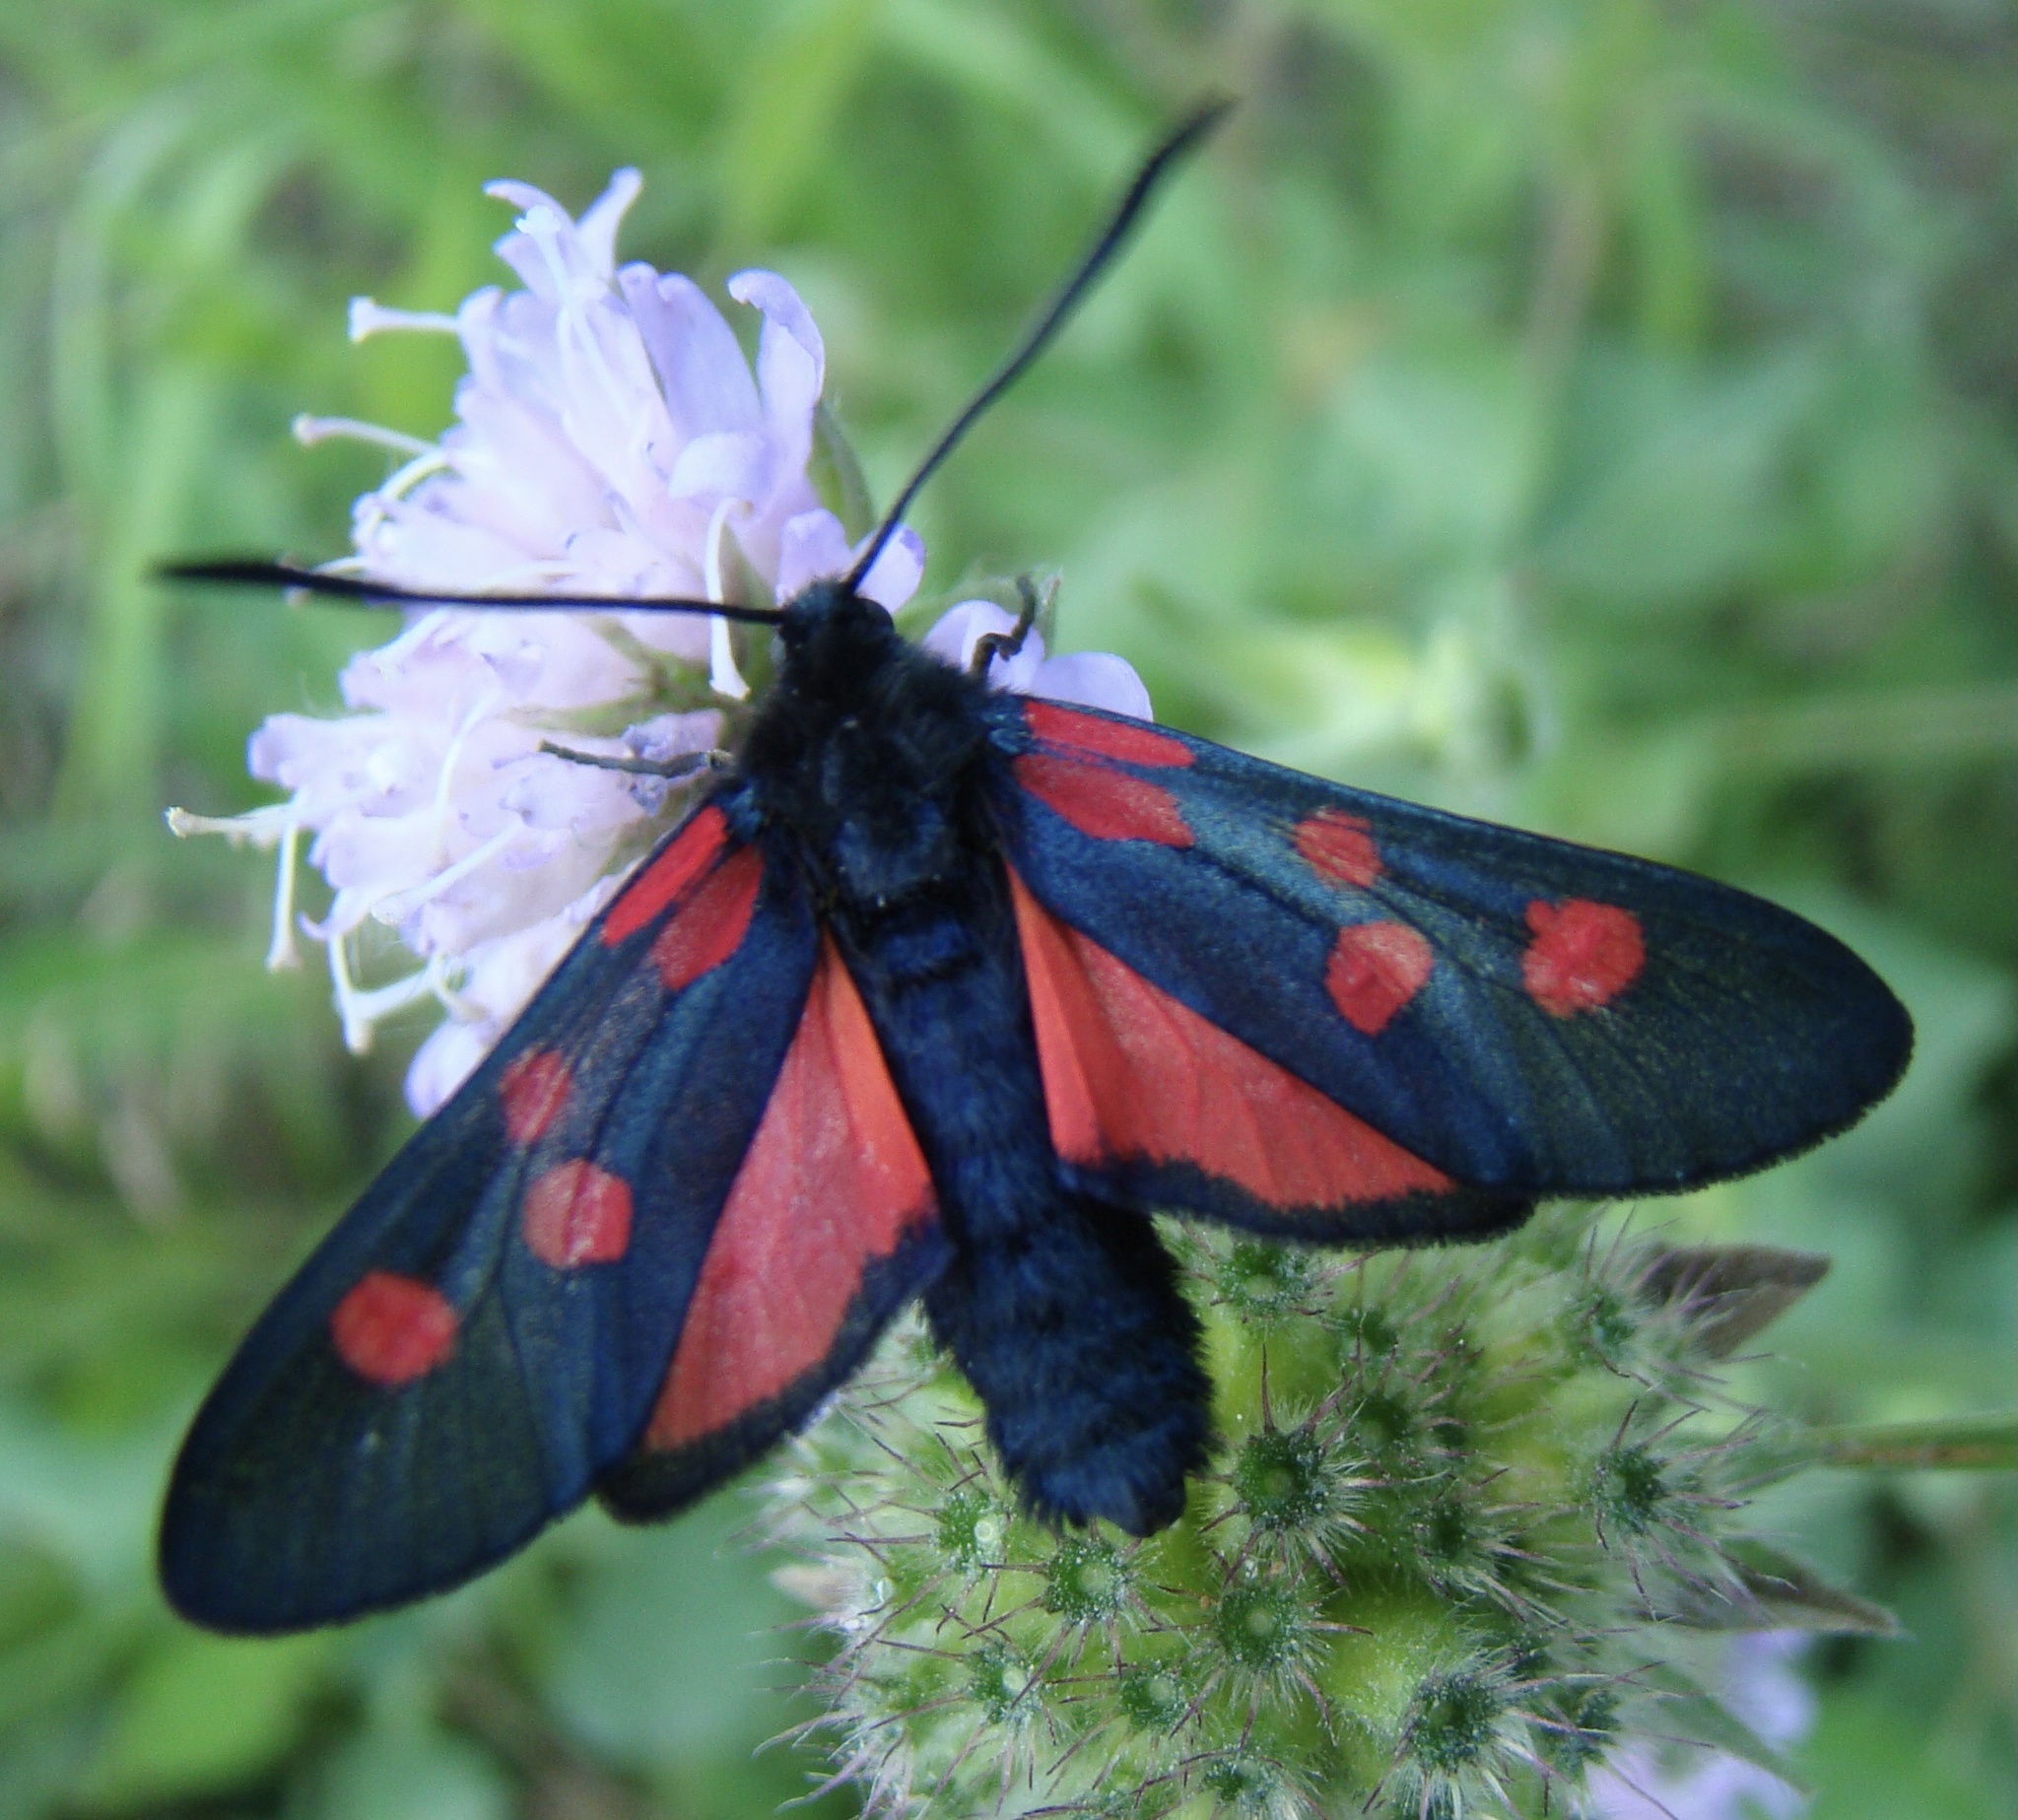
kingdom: Animalia
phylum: Arthropoda
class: Insecta
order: Lepidoptera
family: Zygaenidae
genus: Zygaena
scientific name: Zygaena lonicerae
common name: Narrow-bordered five-spot burnet
